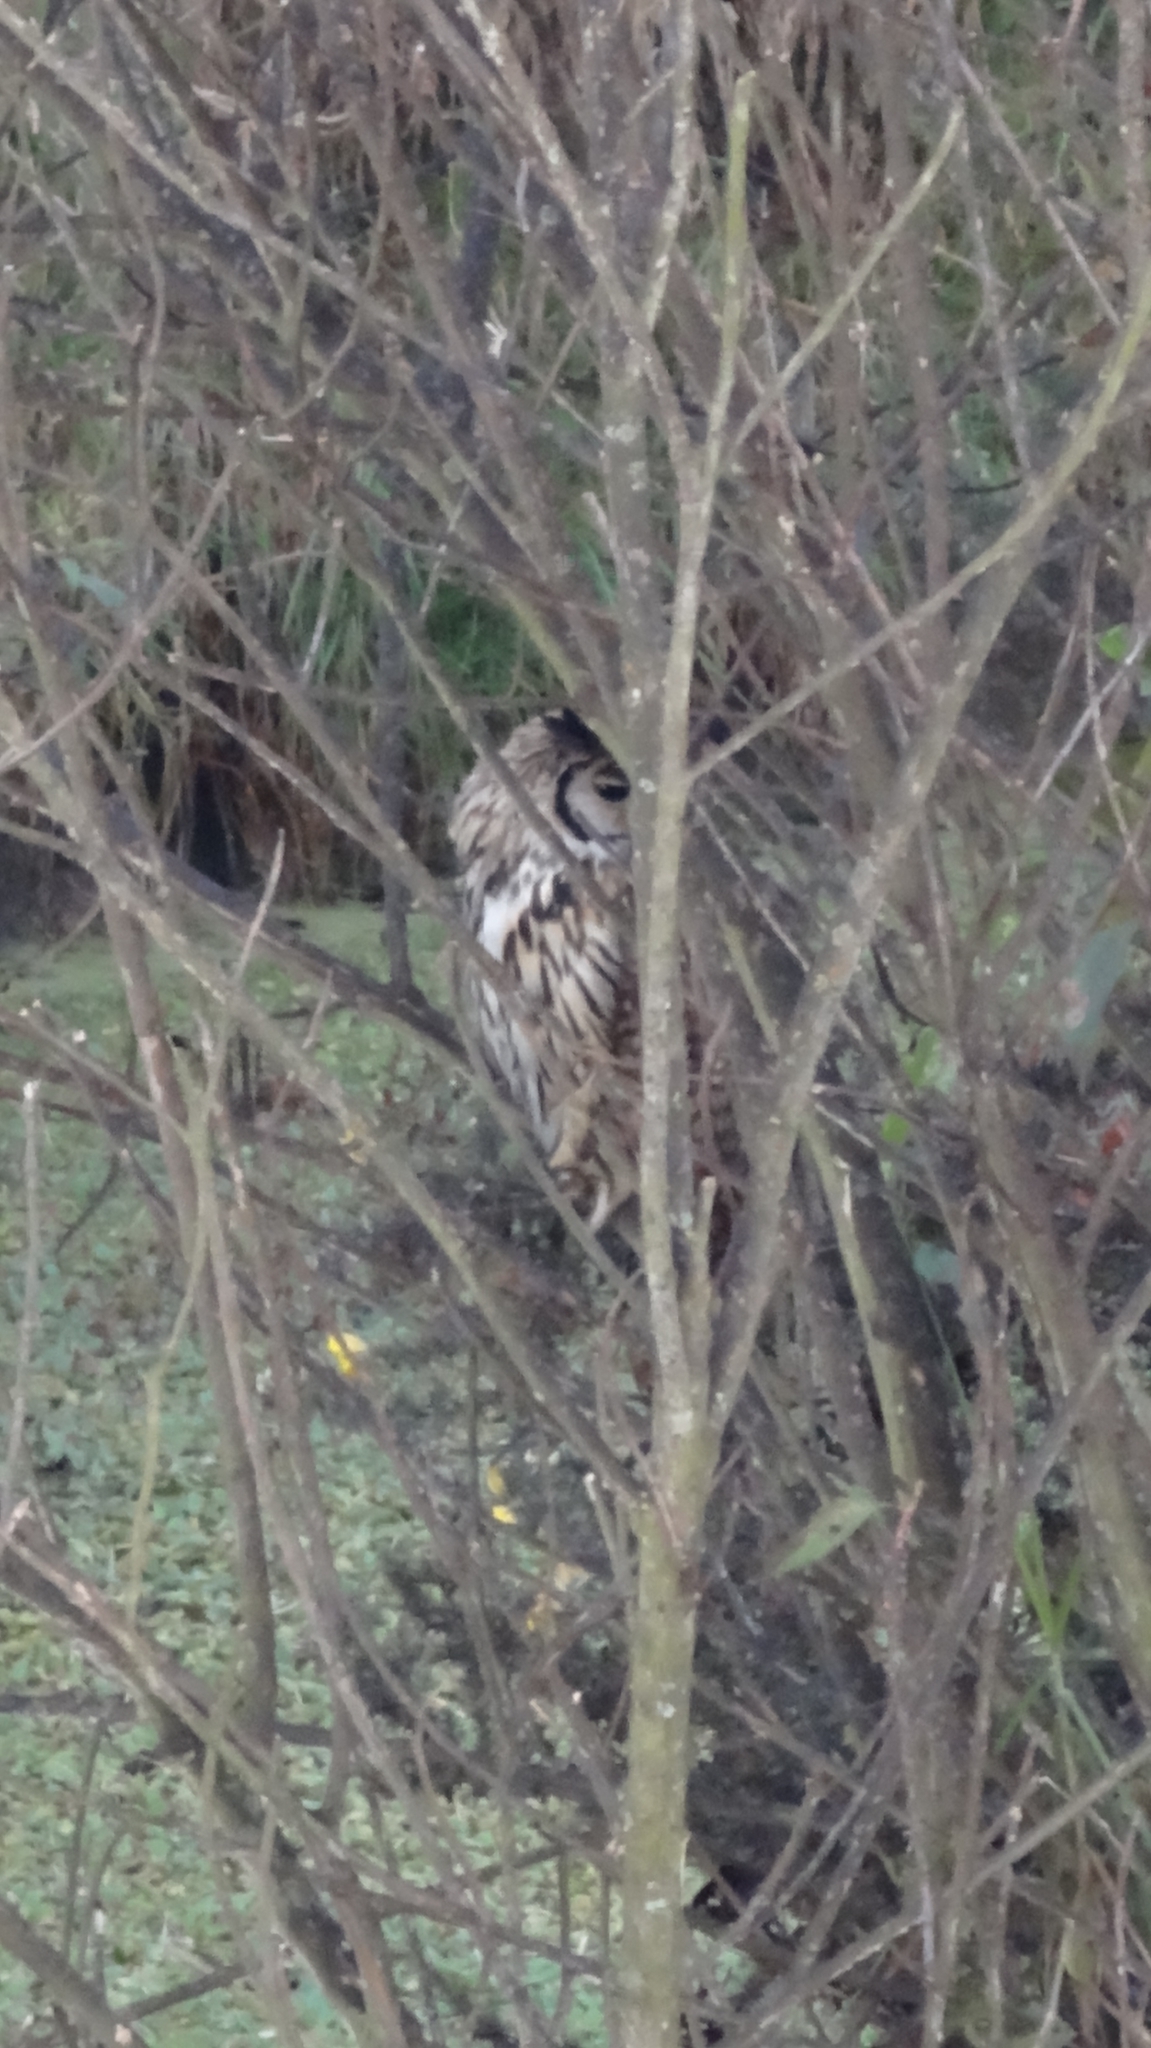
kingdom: Animalia
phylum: Chordata
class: Aves
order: Strigiformes
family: Strigidae
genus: Pseudoscops
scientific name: Pseudoscops clamator
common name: Striped owl
